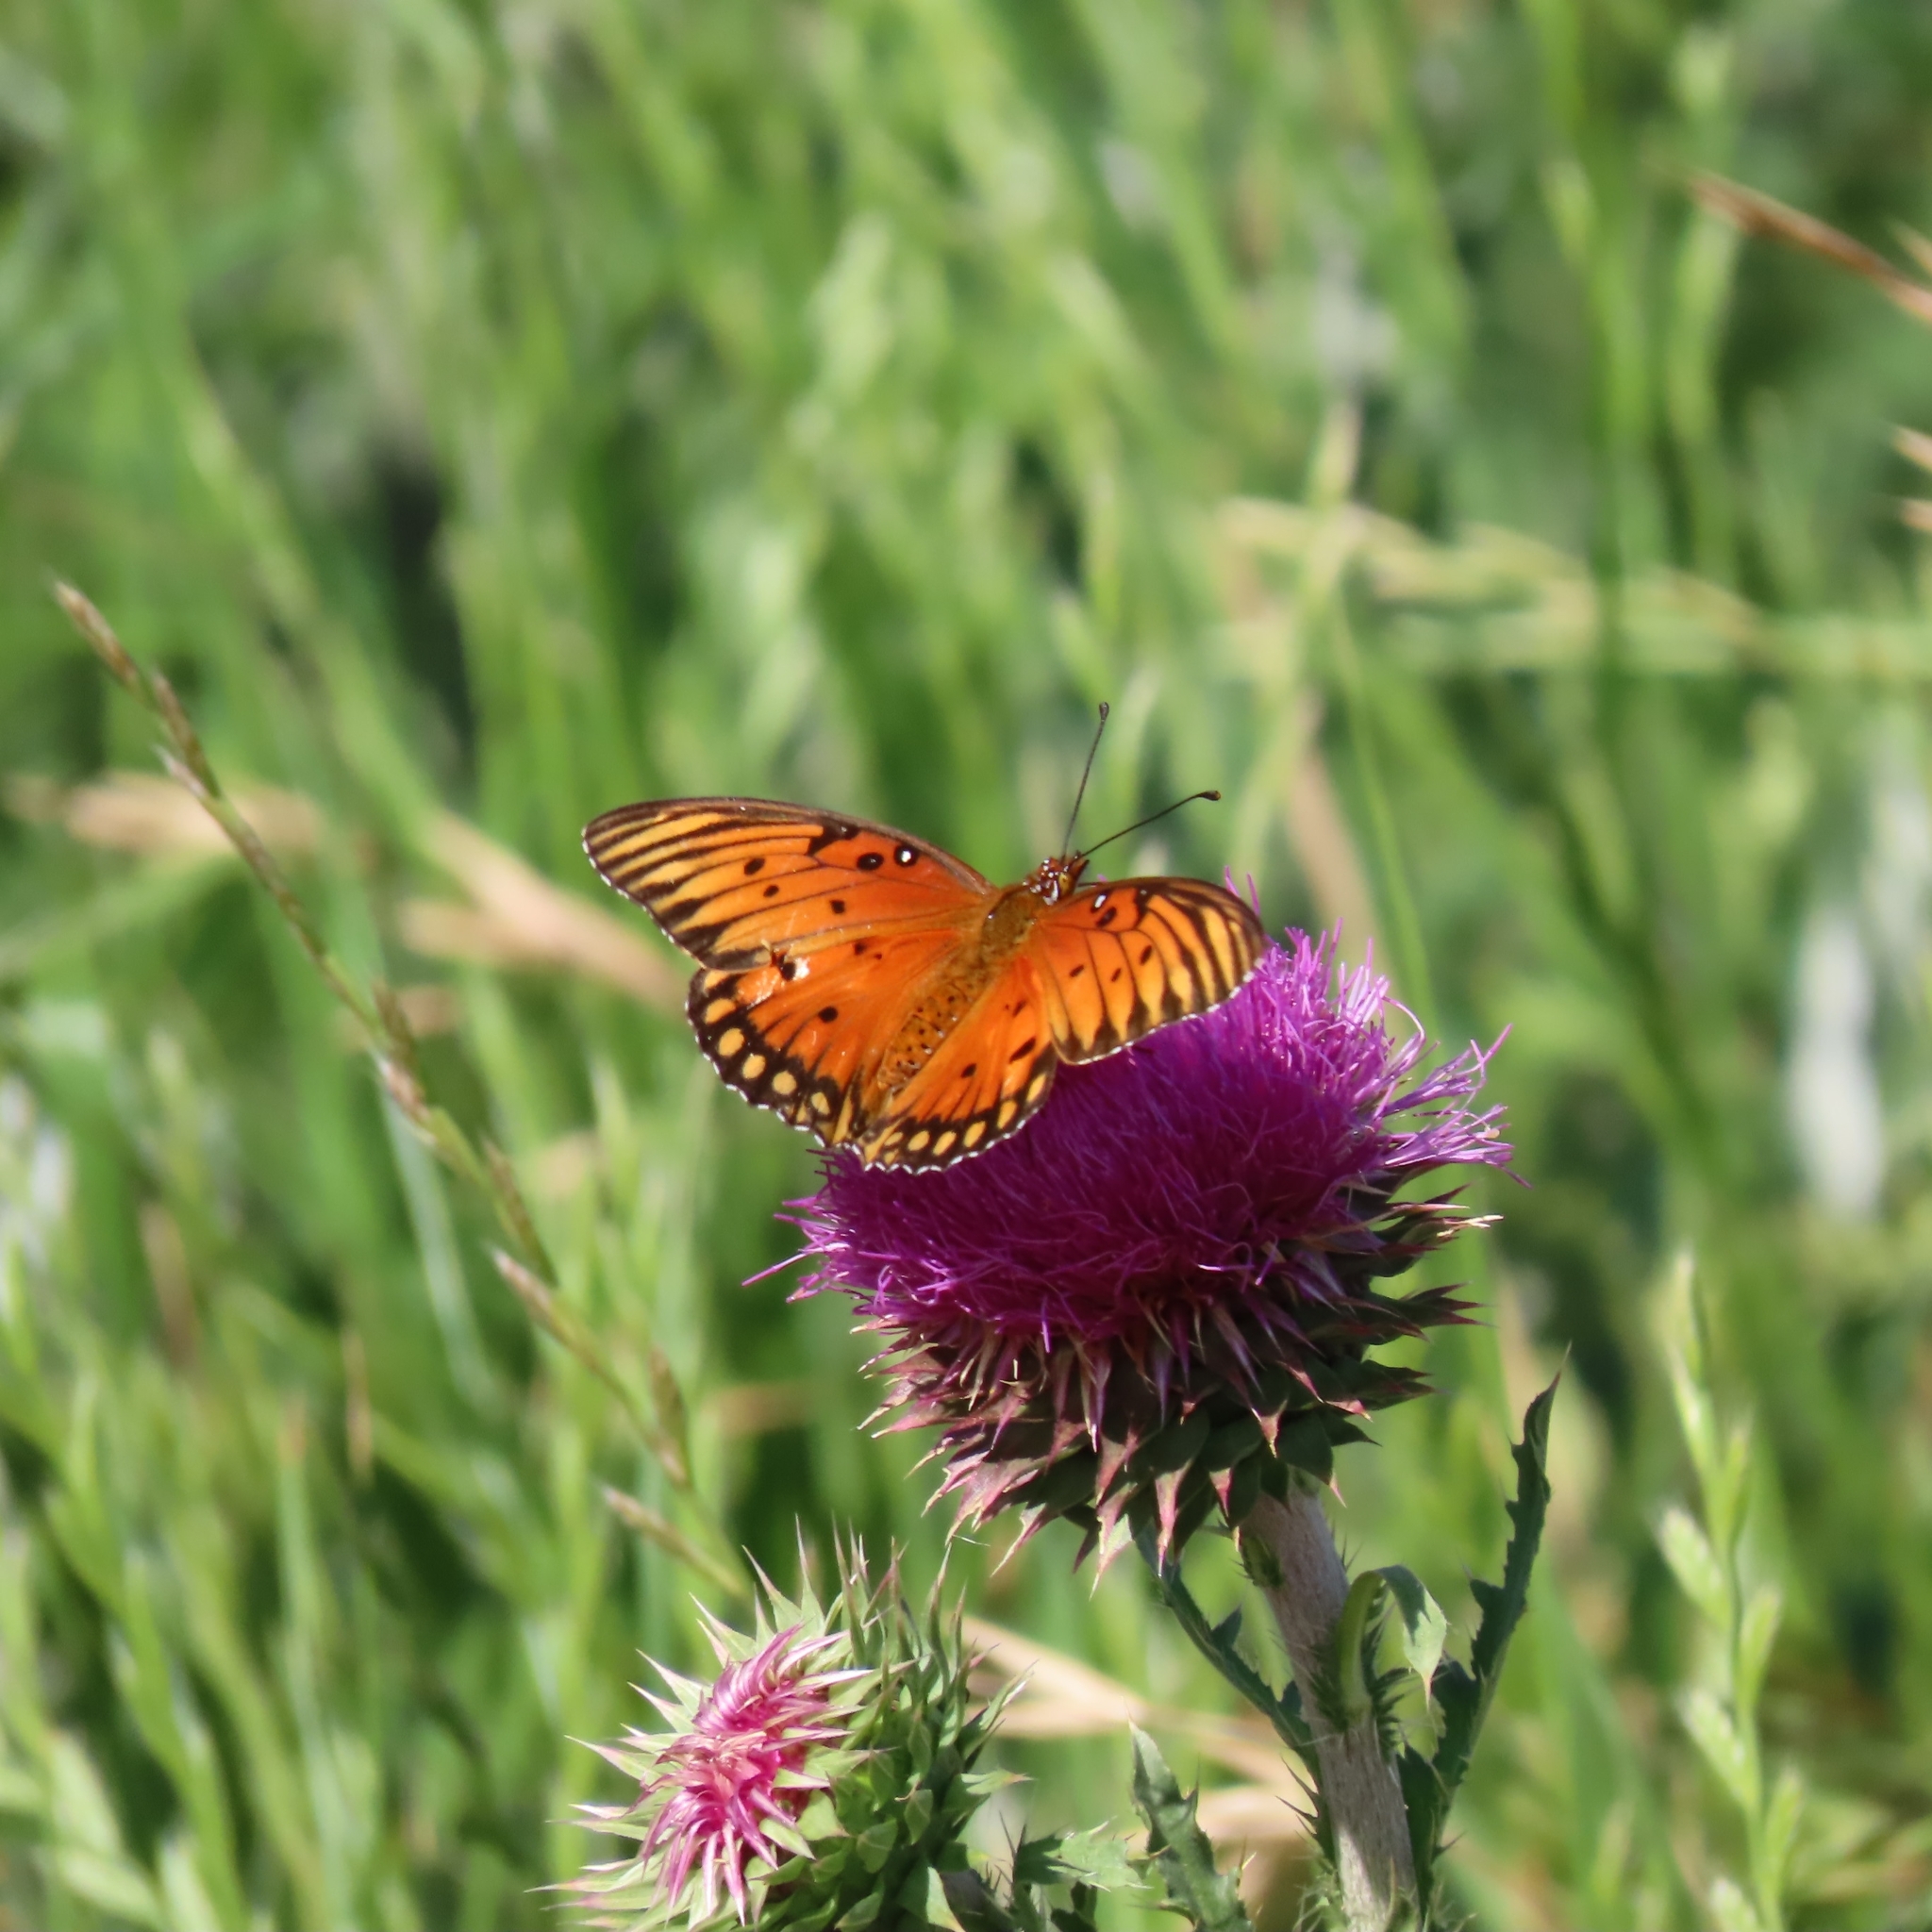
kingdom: Animalia
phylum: Arthropoda
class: Insecta
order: Lepidoptera
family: Nymphalidae
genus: Dione
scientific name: Dione vanillae
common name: Gulf fritillary
